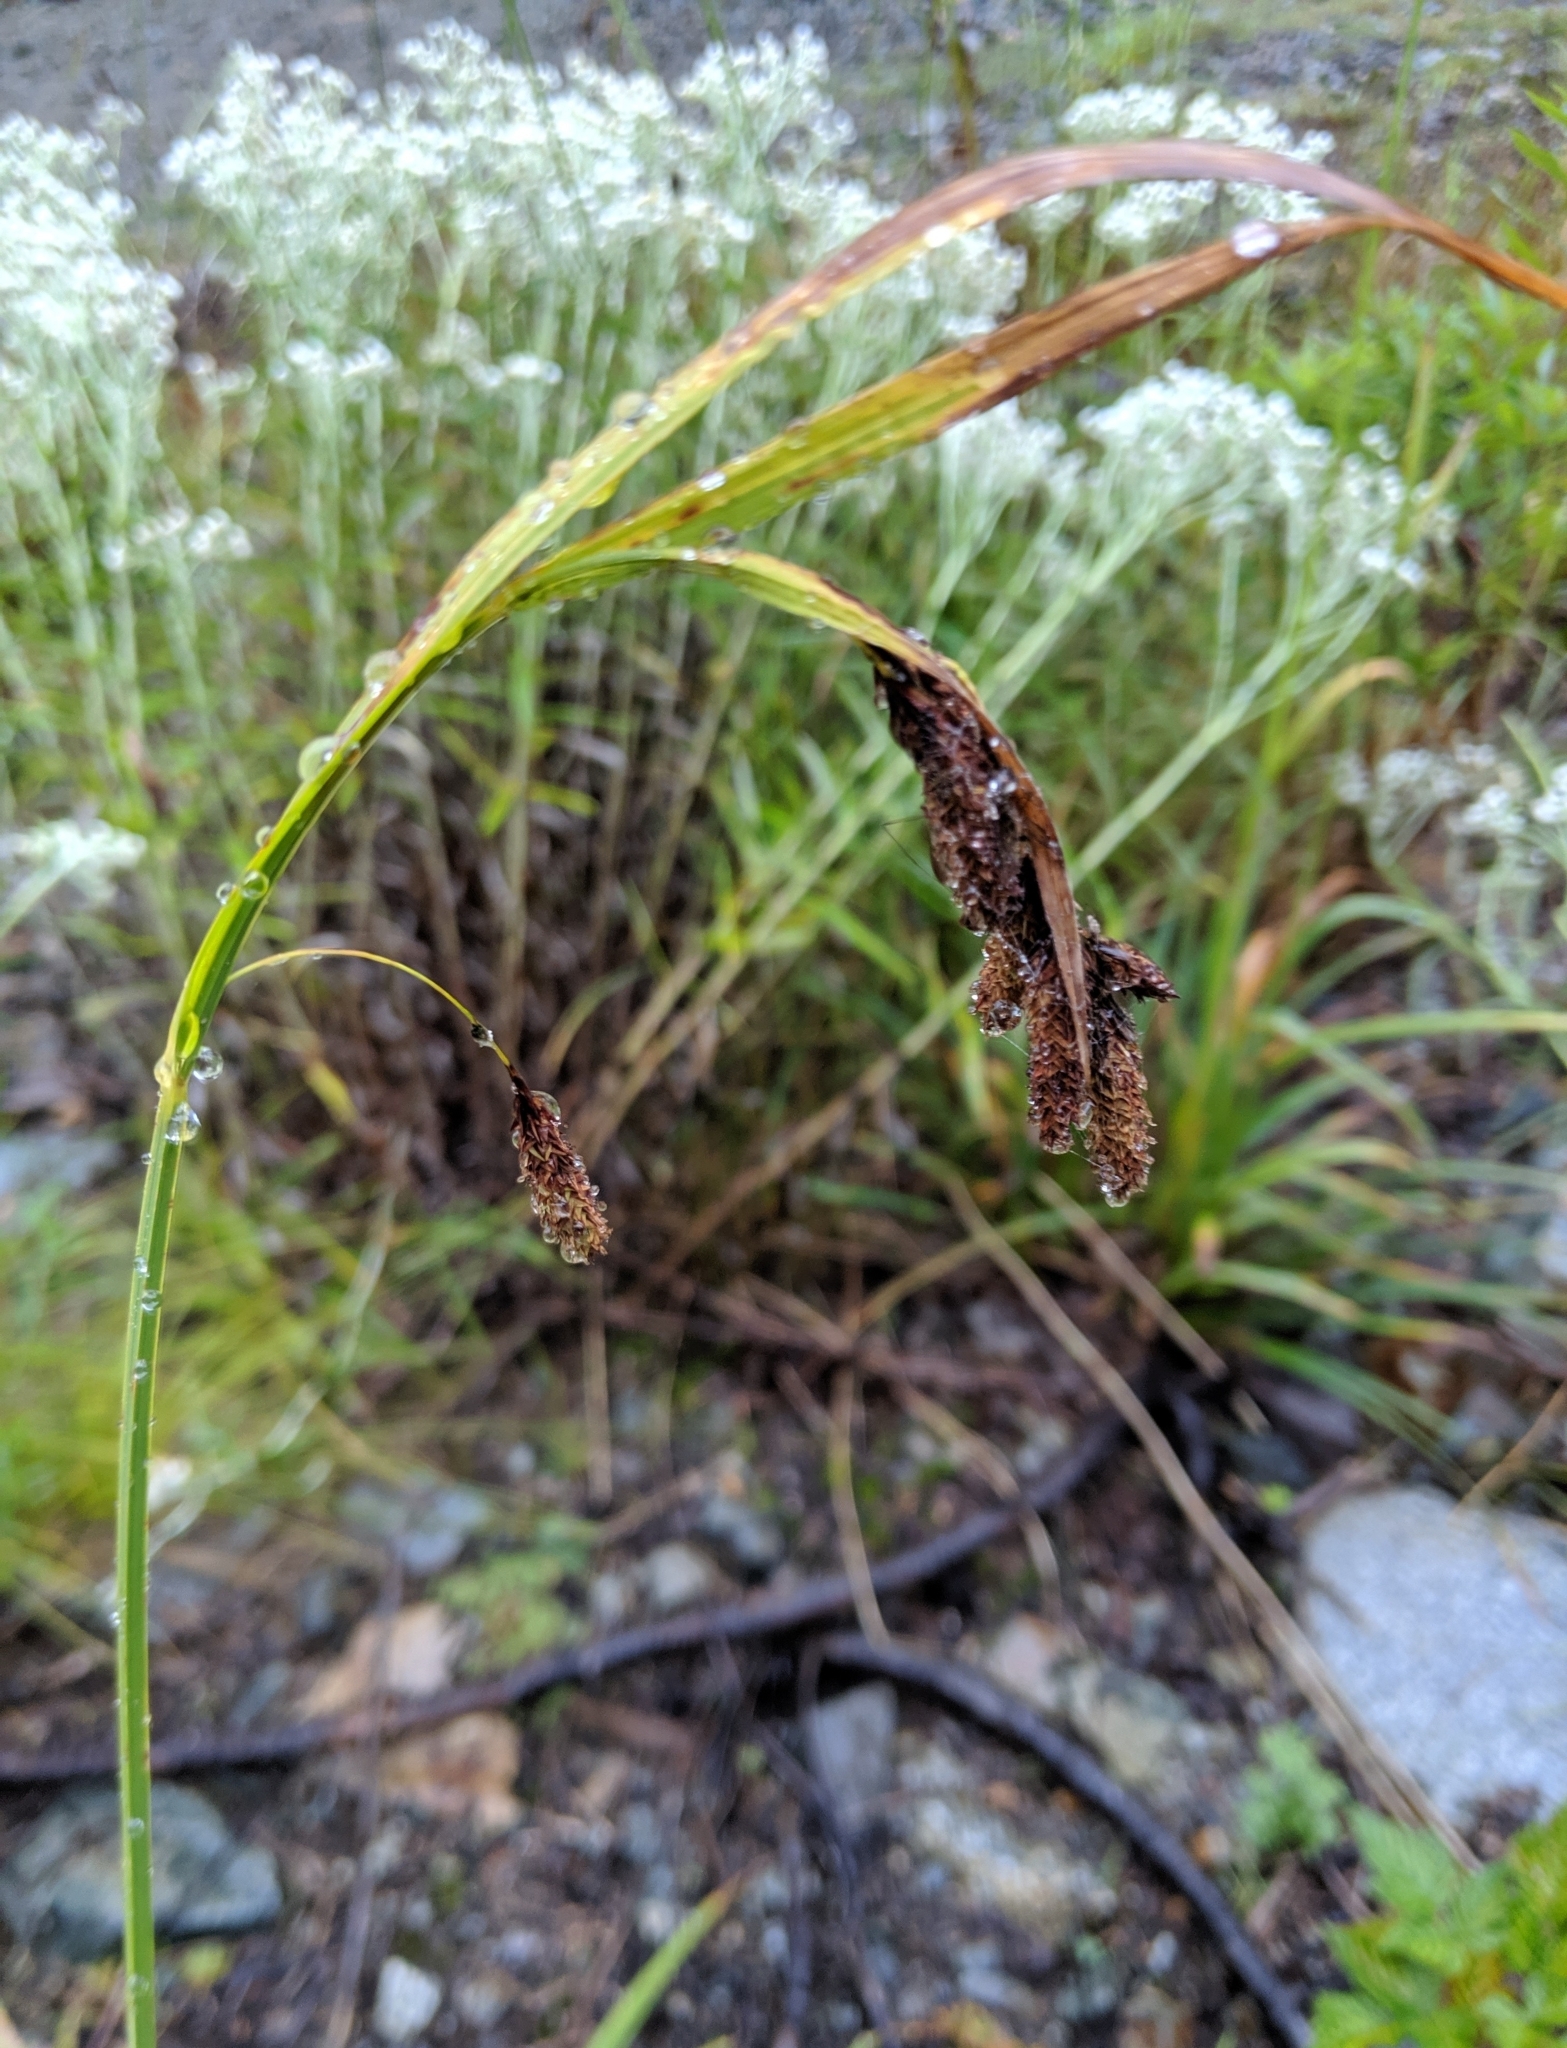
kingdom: Plantae
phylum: Tracheophyta
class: Liliopsida
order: Poales
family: Cyperaceae
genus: Carex
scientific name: Carex mertensii
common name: Mertens' sedge
